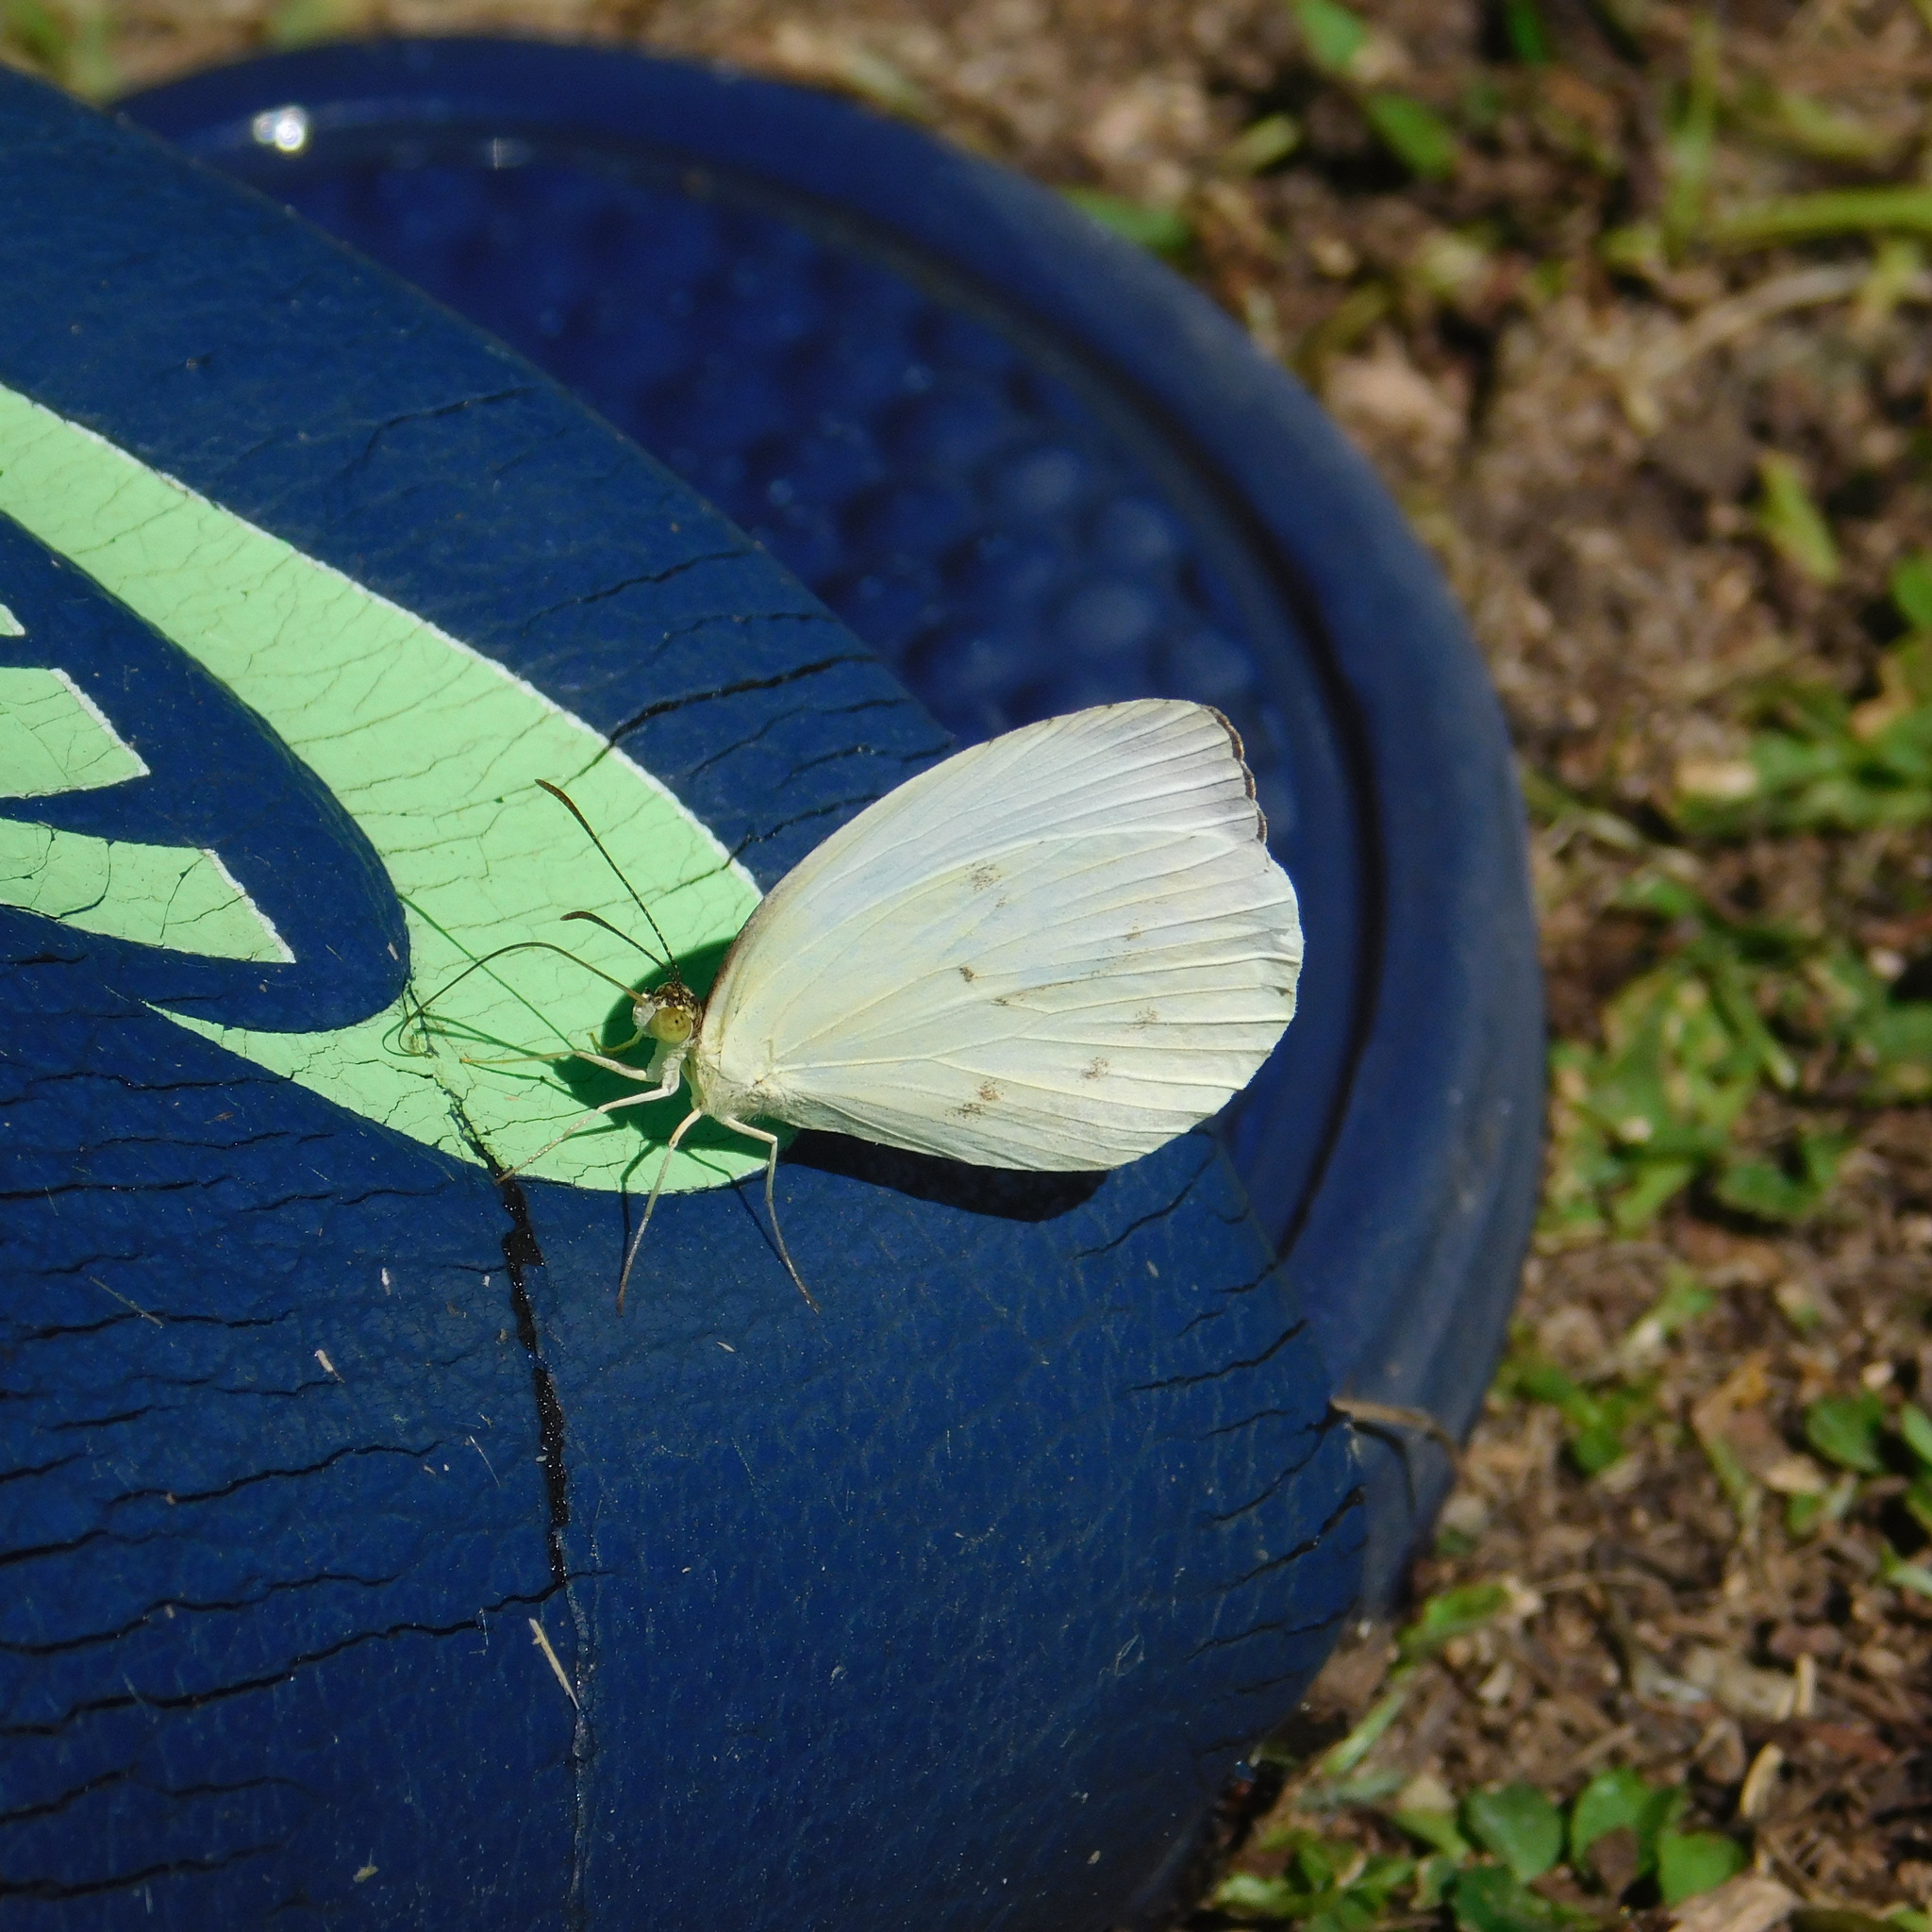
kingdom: Animalia
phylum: Arthropoda
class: Insecta
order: Lepidoptera
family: Pieridae
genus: Abaeis
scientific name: Abaeis albula
